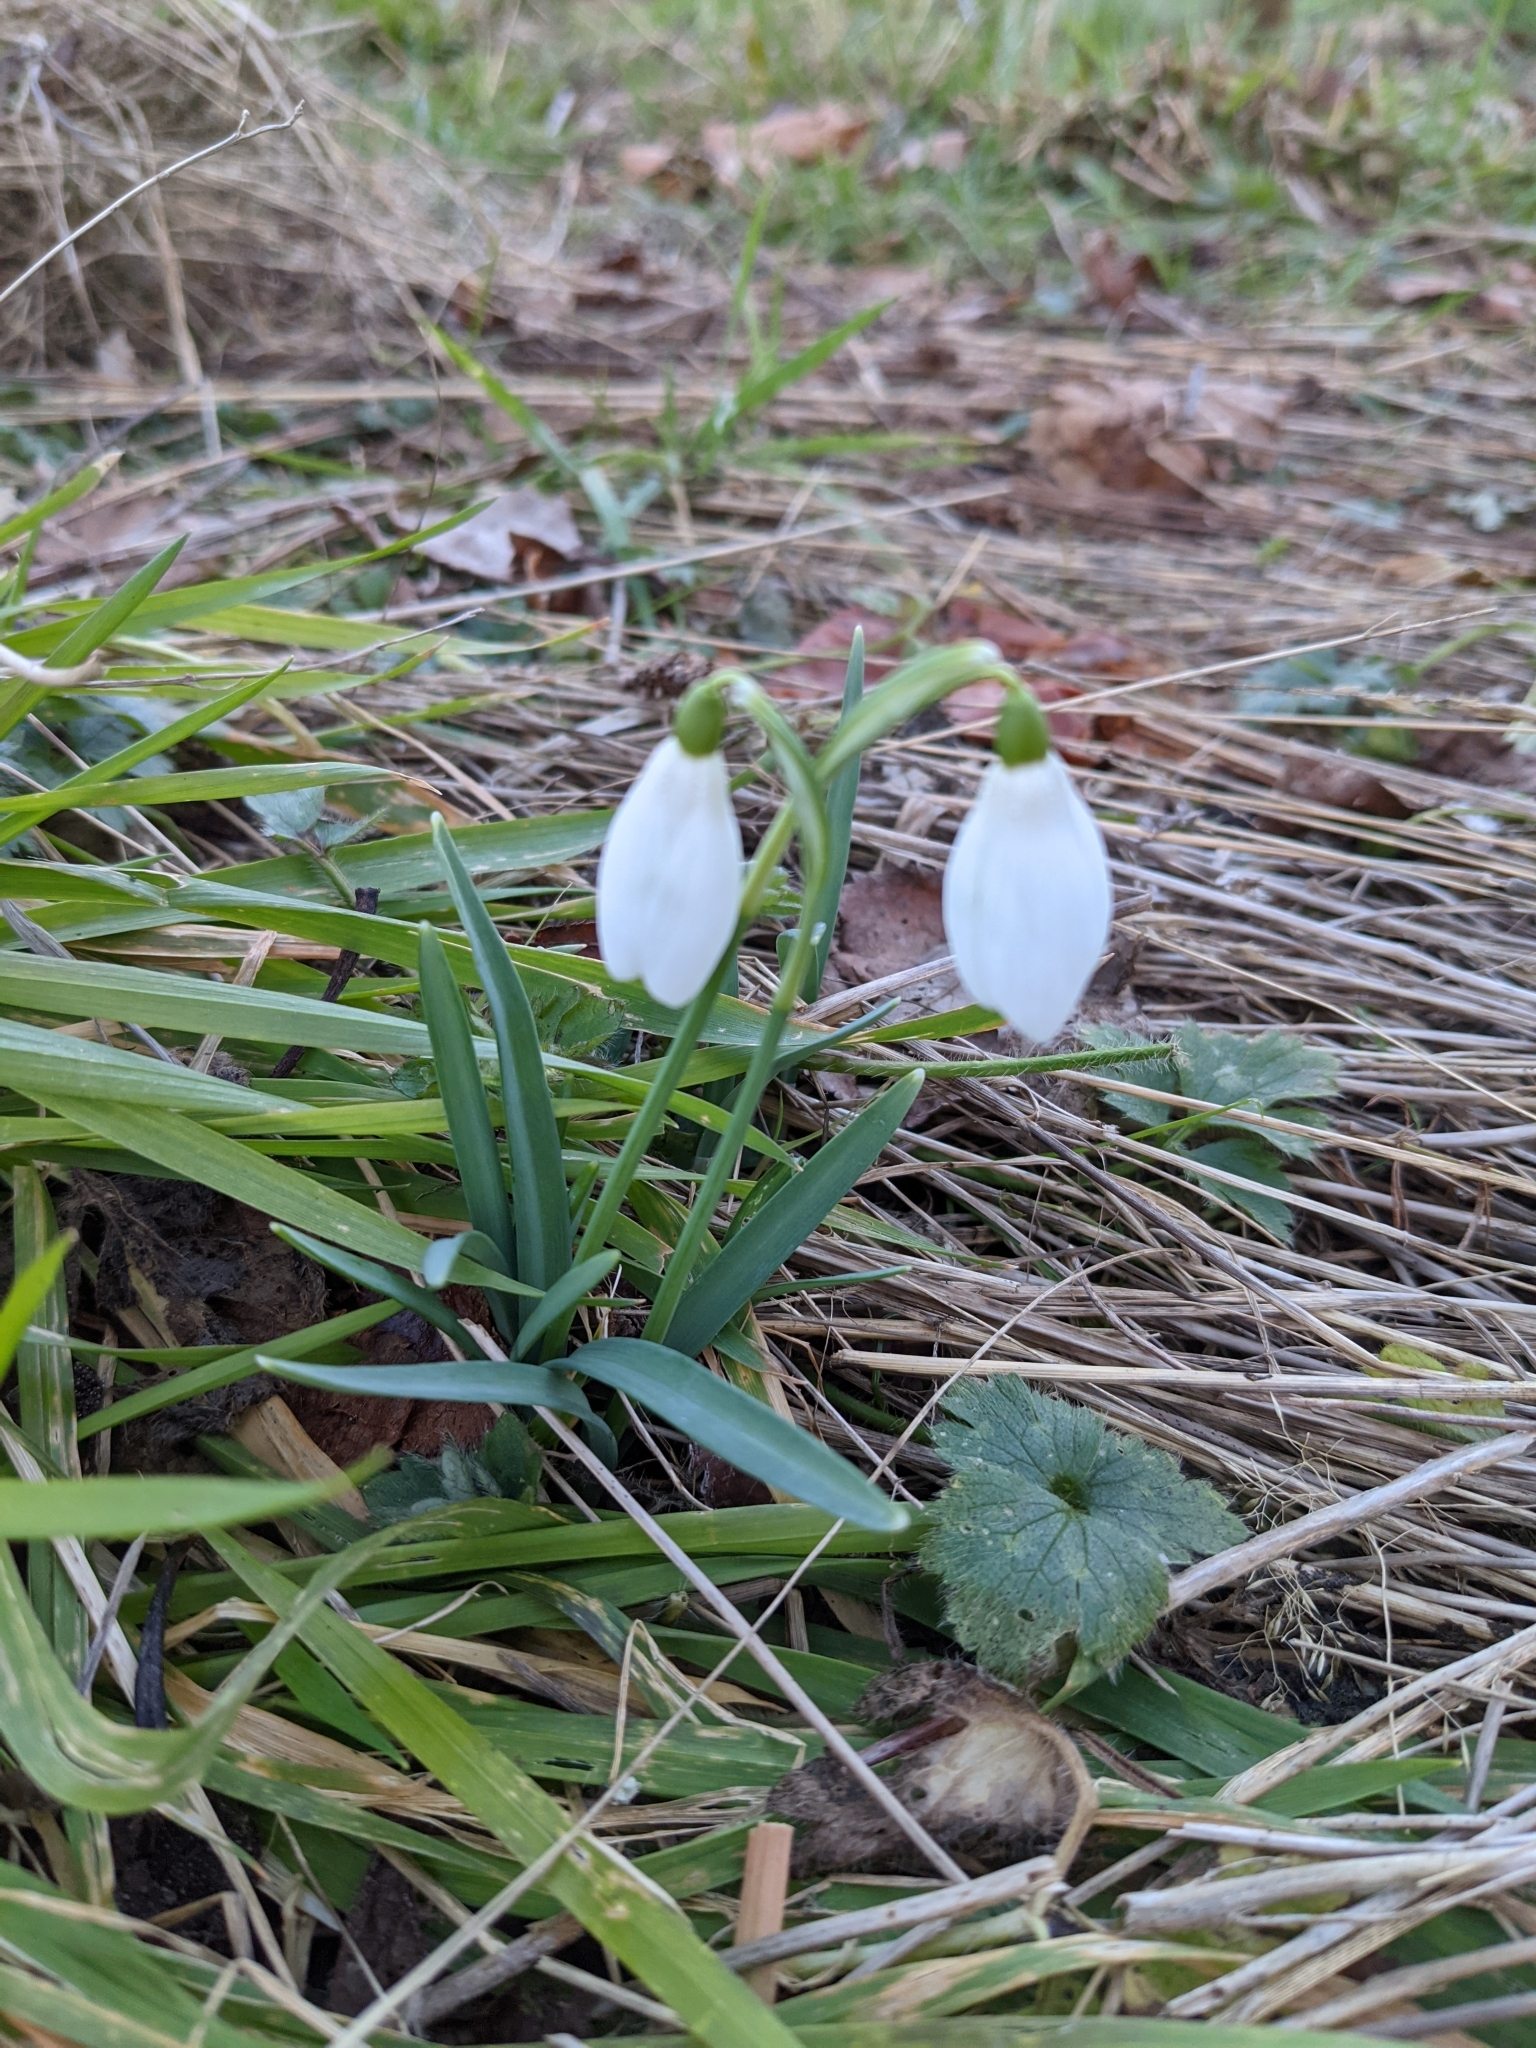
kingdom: Plantae
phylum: Tracheophyta
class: Liliopsida
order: Asparagales
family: Amaryllidaceae
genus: Galanthus
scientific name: Galanthus nivalis
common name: Snowdrop
